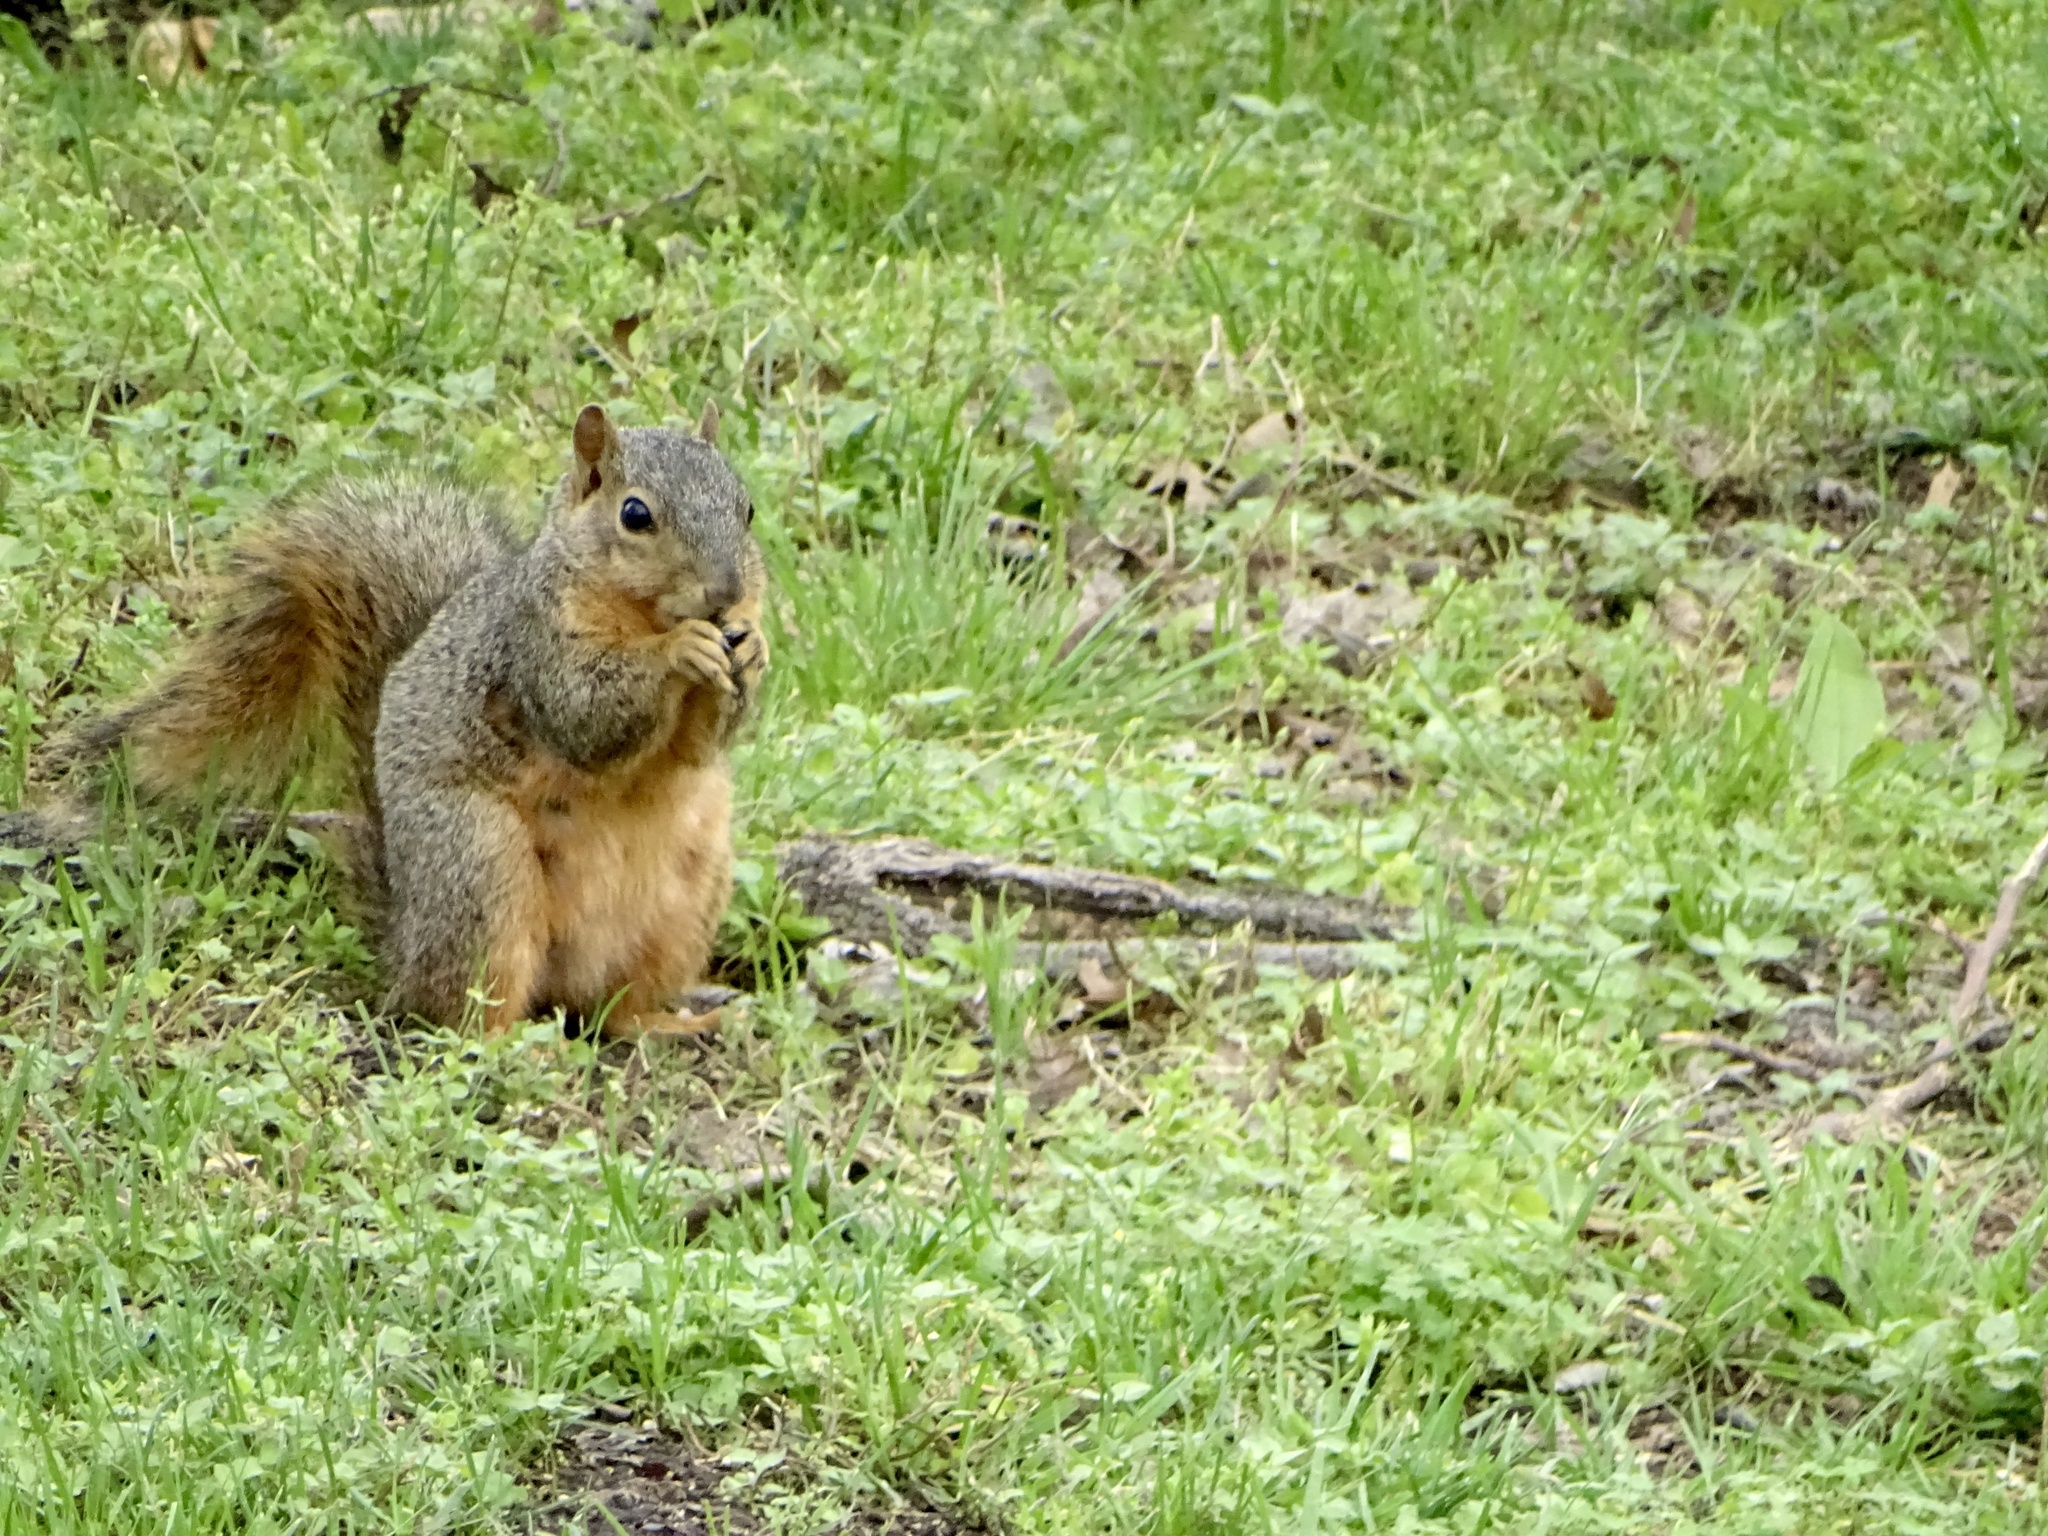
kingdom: Animalia
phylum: Chordata
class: Mammalia
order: Rodentia
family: Sciuridae
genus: Sciurus
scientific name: Sciurus niger
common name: Fox squirrel
